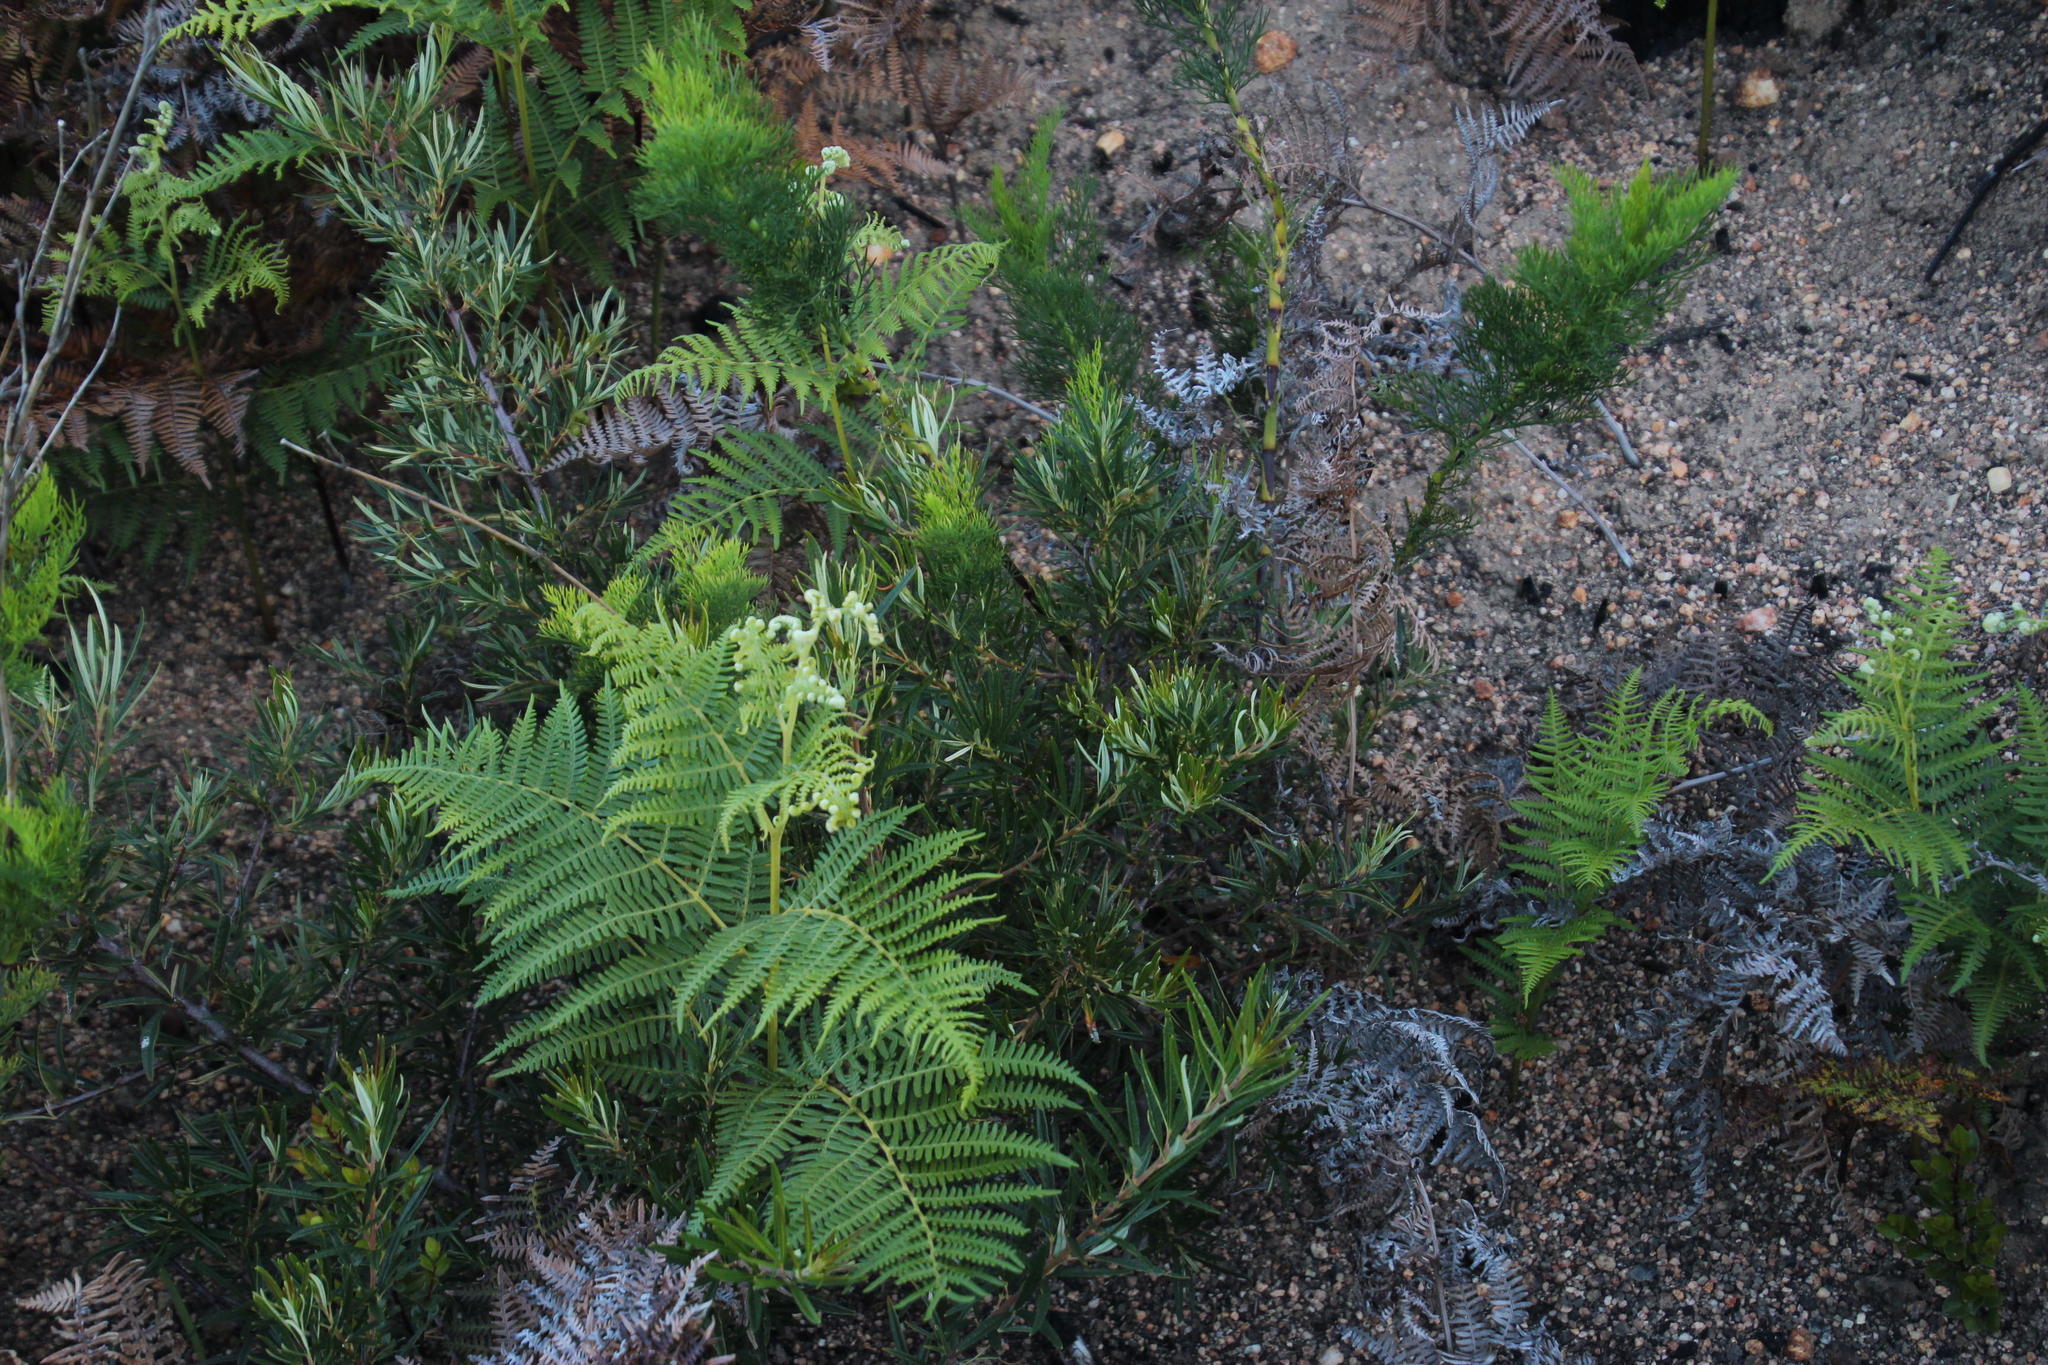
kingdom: Plantae
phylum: Tracheophyta
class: Magnoliopsida
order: Sapindales
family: Anacardiaceae
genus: Searsia
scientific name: Searsia rosmarinifolia
